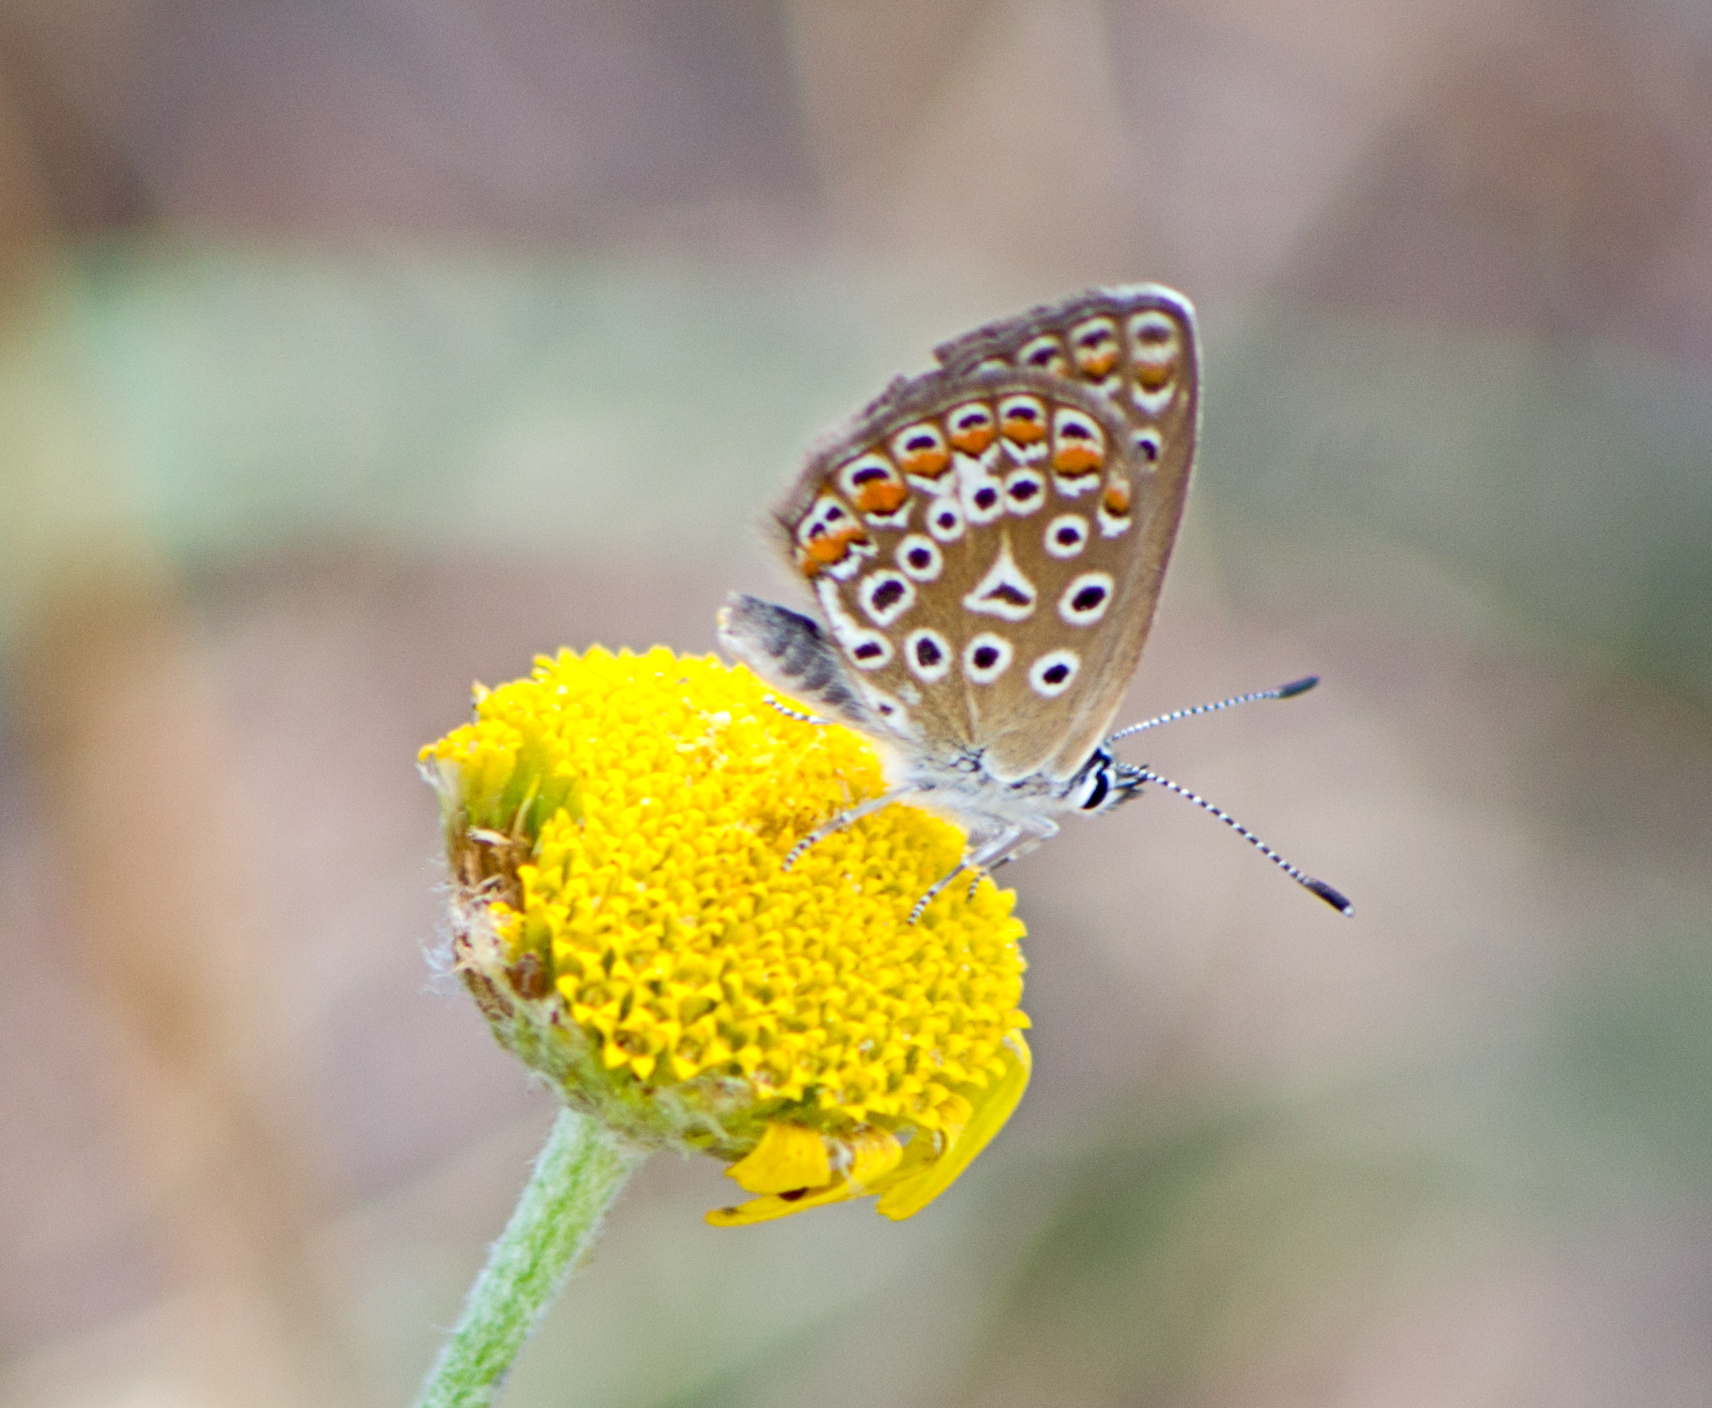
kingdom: Animalia
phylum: Arthropoda
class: Insecta
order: Lepidoptera
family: Lycaenidae
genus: Polyommatus
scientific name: Polyommatus icarus
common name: Common blue
